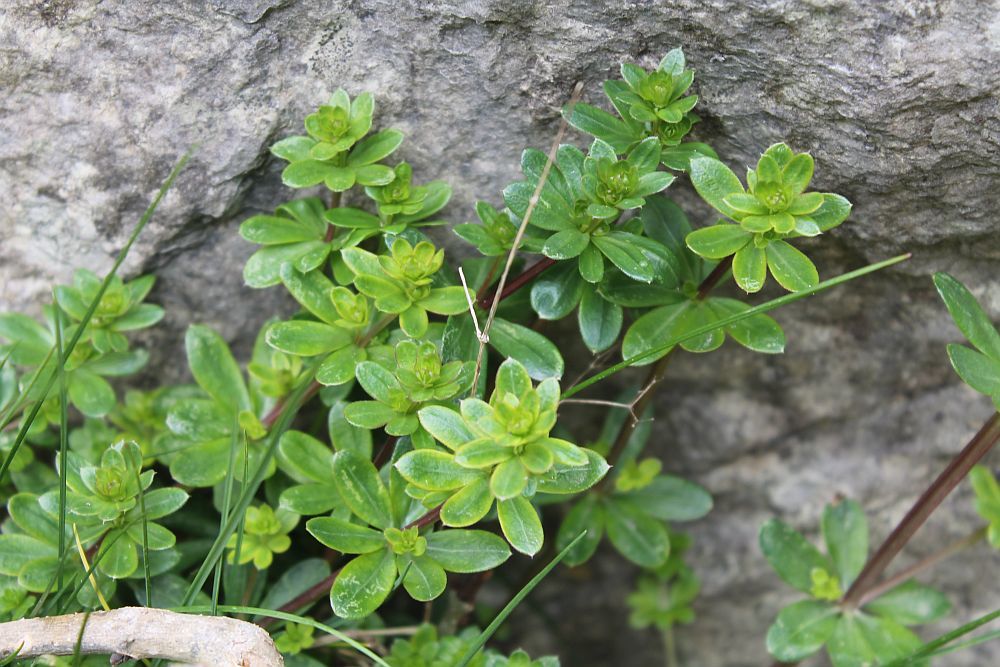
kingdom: Plantae
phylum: Tracheophyta
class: Magnoliopsida
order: Gentianales
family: Rubiaceae
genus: Galium
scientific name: Galium mollugo
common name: Hedge bedstraw
